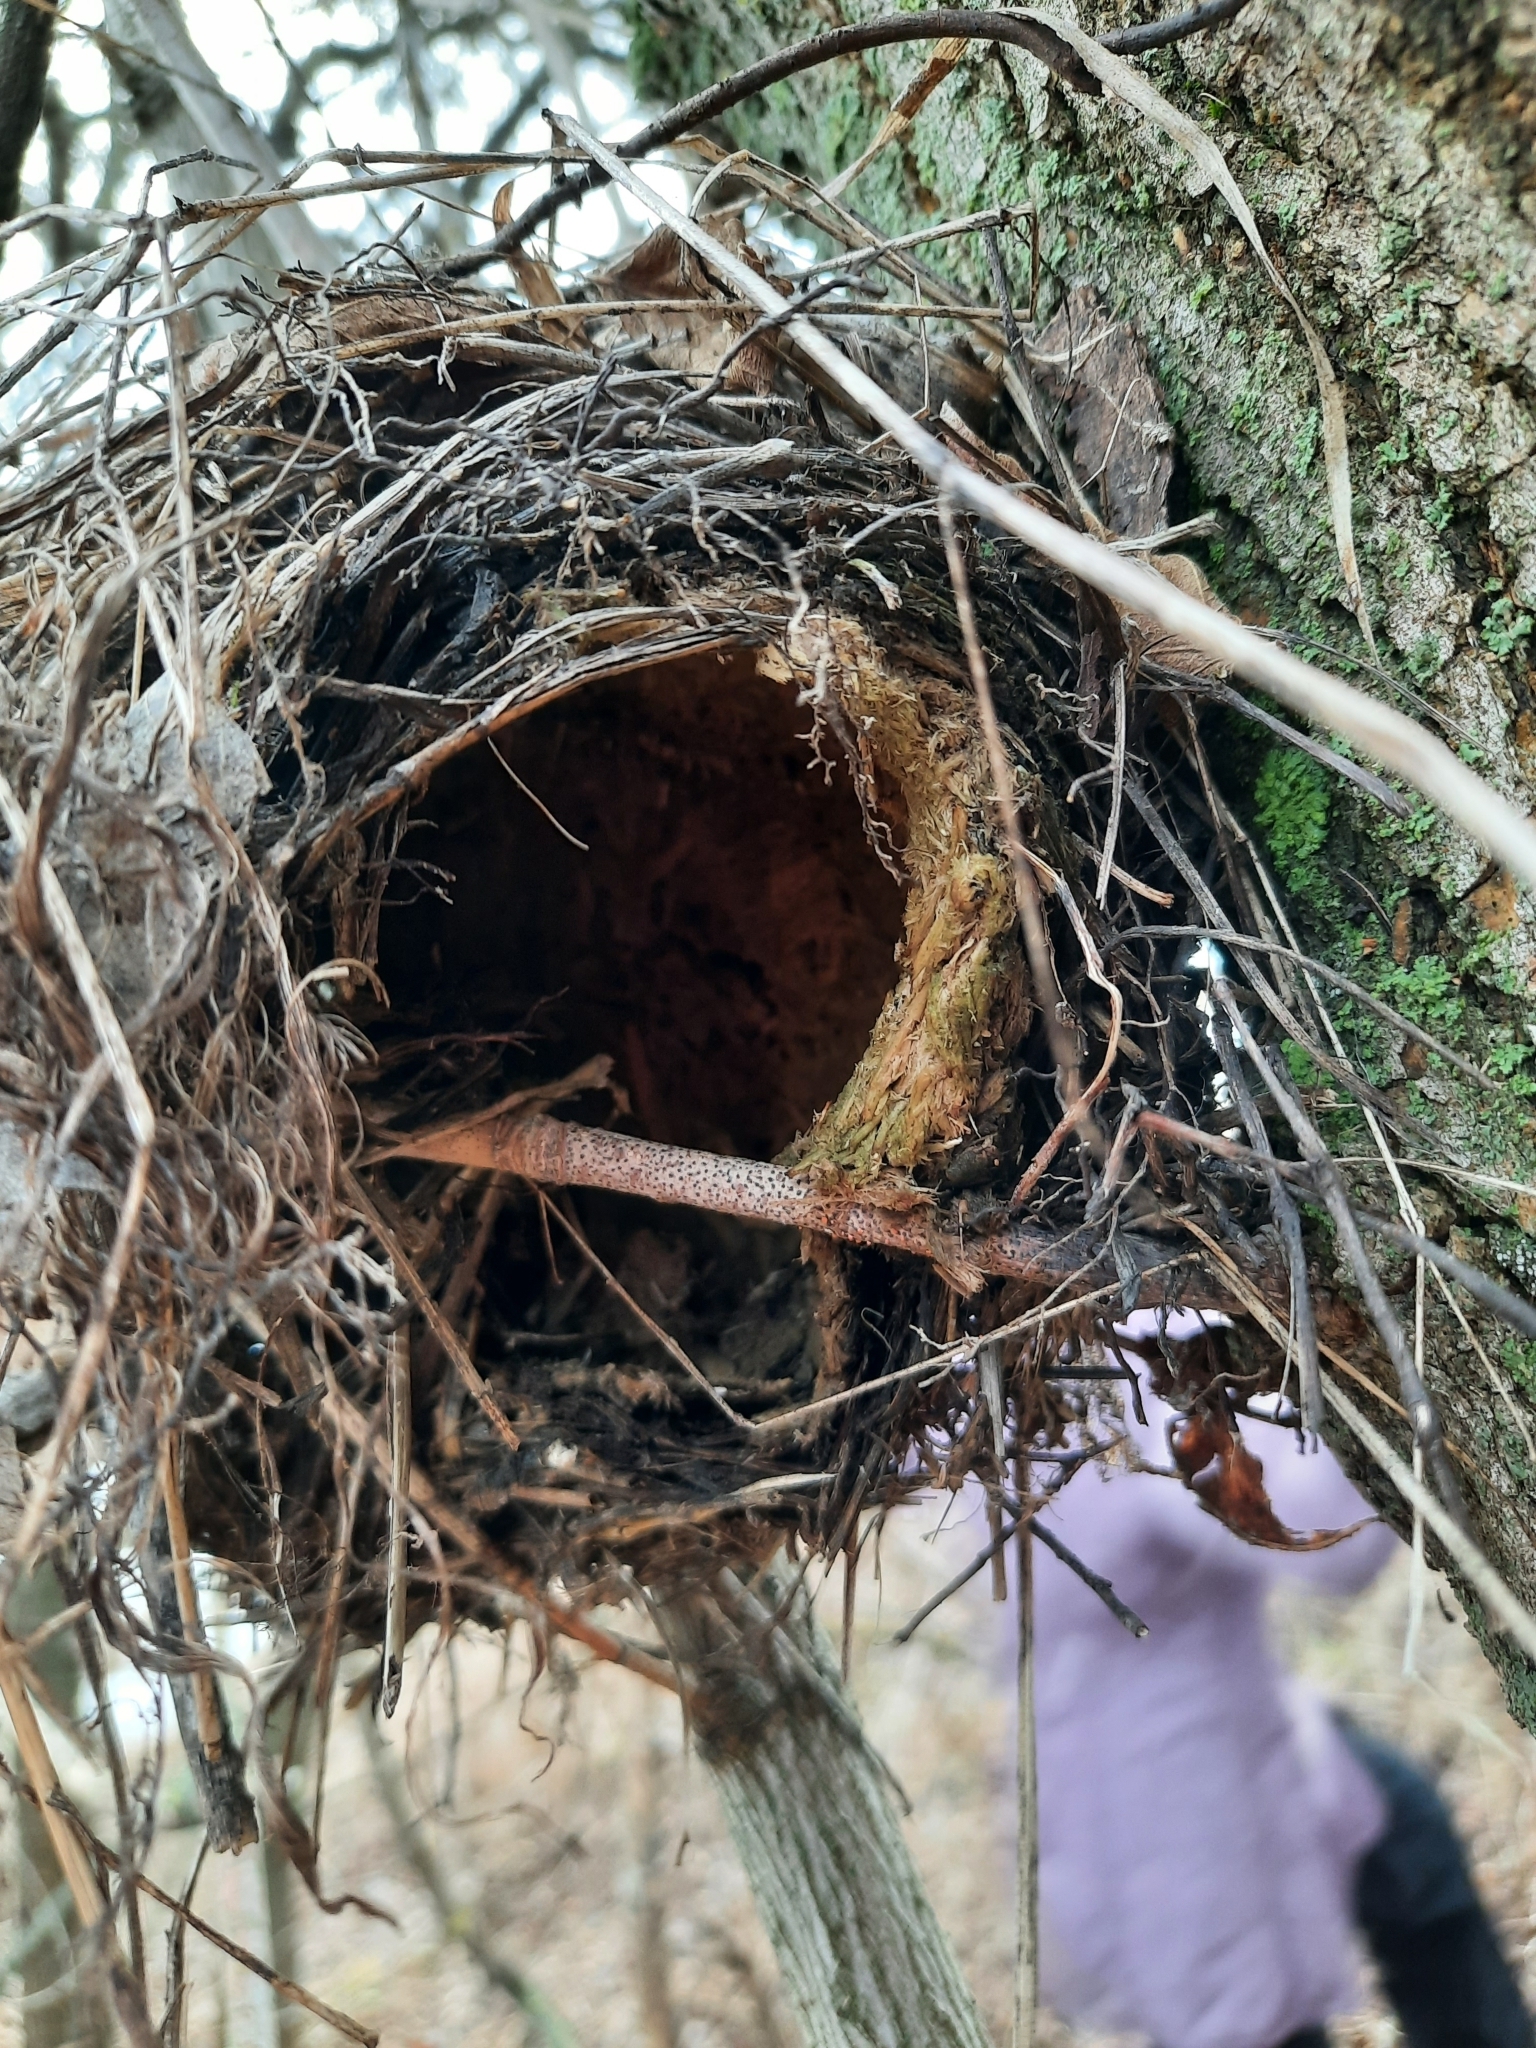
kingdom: Animalia
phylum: Chordata
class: Aves
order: Passeriformes
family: Troglodytidae
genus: Troglodytes
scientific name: Troglodytes troglodytes
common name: Eurasian wren
